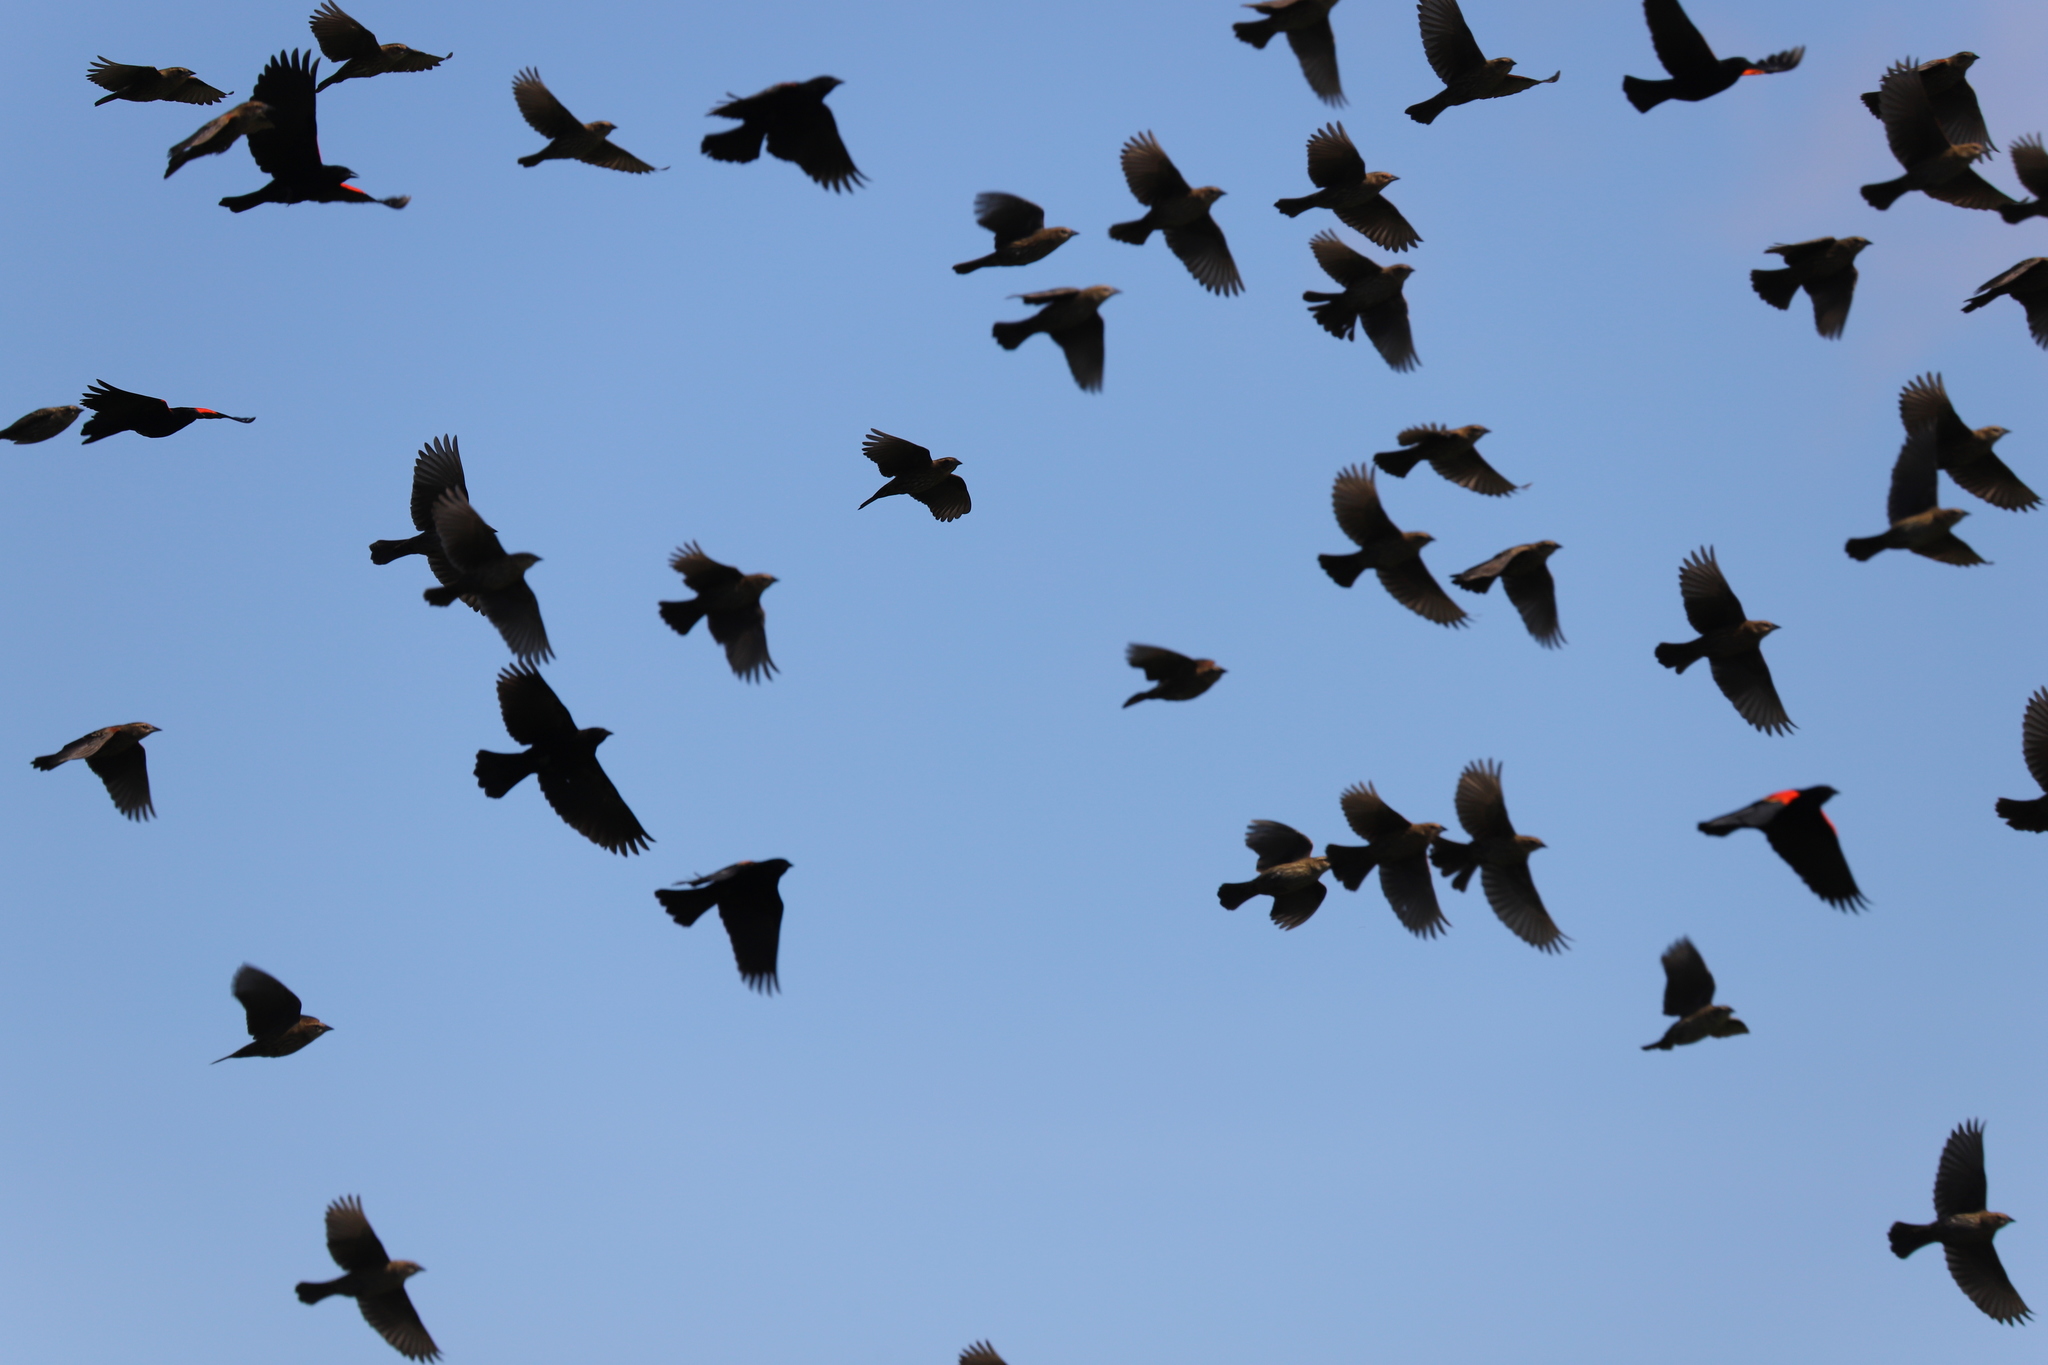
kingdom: Animalia
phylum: Chordata
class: Aves
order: Passeriformes
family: Icteridae
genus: Agelaius
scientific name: Agelaius phoeniceus
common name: Red-winged blackbird
